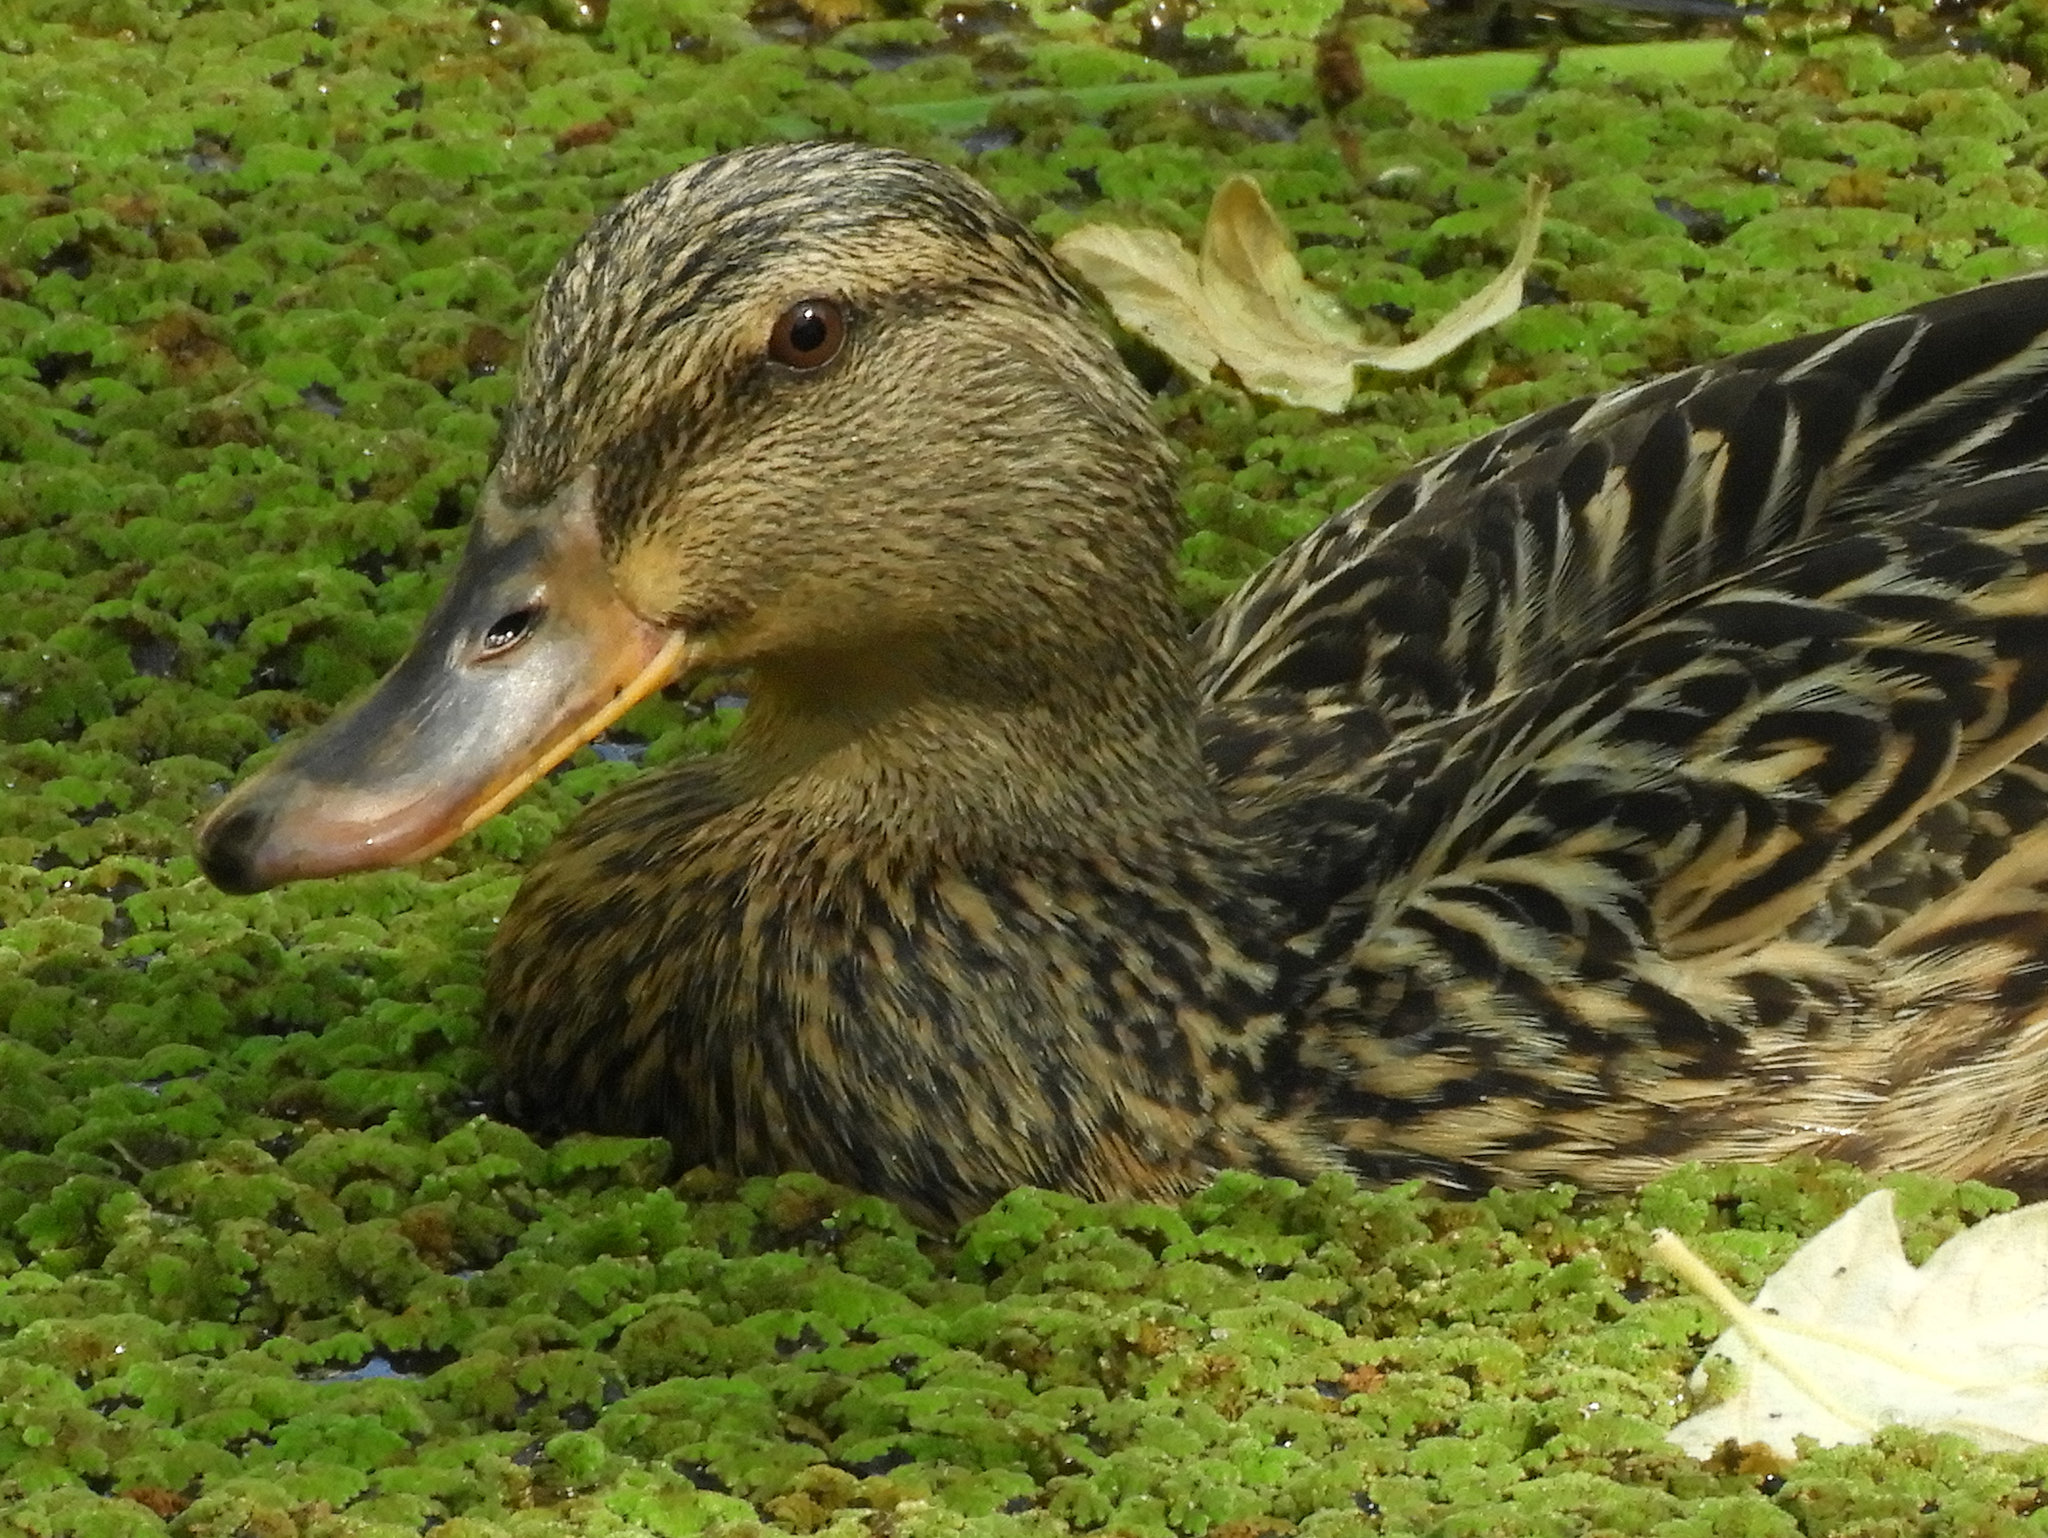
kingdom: Animalia
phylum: Chordata
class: Aves
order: Anseriformes
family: Anatidae
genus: Anas
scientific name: Anas platyrhynchos
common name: Mallard
